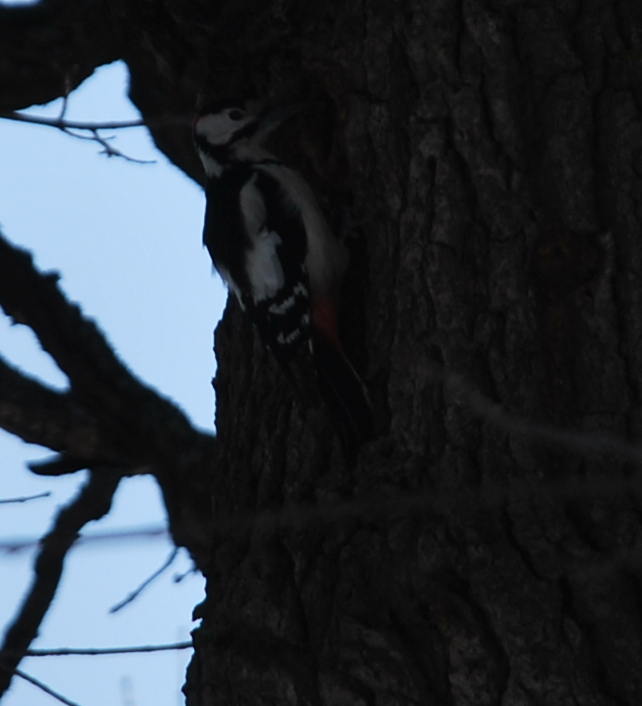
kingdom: Animalia
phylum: Chordata
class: Aves
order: Piciformes
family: Picidae
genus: Dendrocopos
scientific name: Dendrocopos major
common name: Great spotted woodpecker
